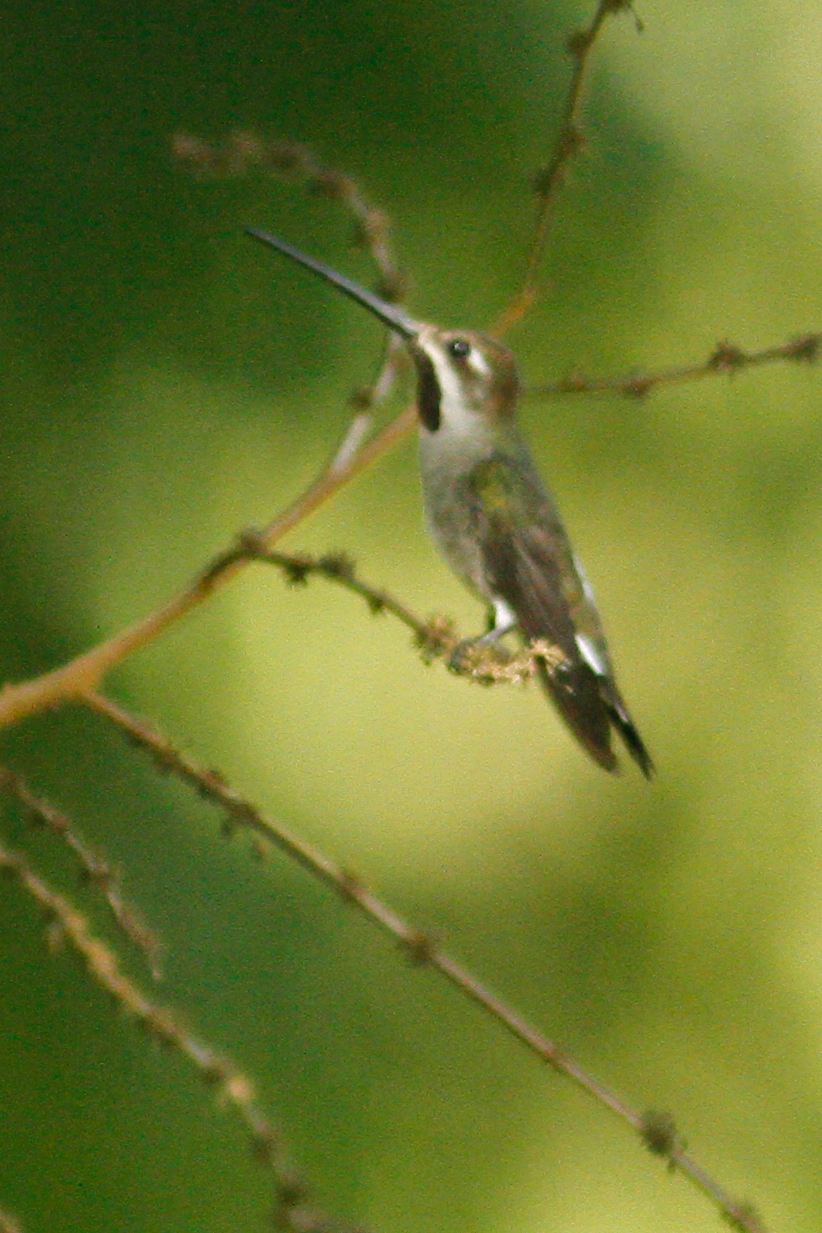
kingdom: Animalia
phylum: Chordata
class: Aves
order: Apodiformes
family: Trochilidae
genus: Heliomaster
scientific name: Heliomaster longirostris
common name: Long-billed starthroat
